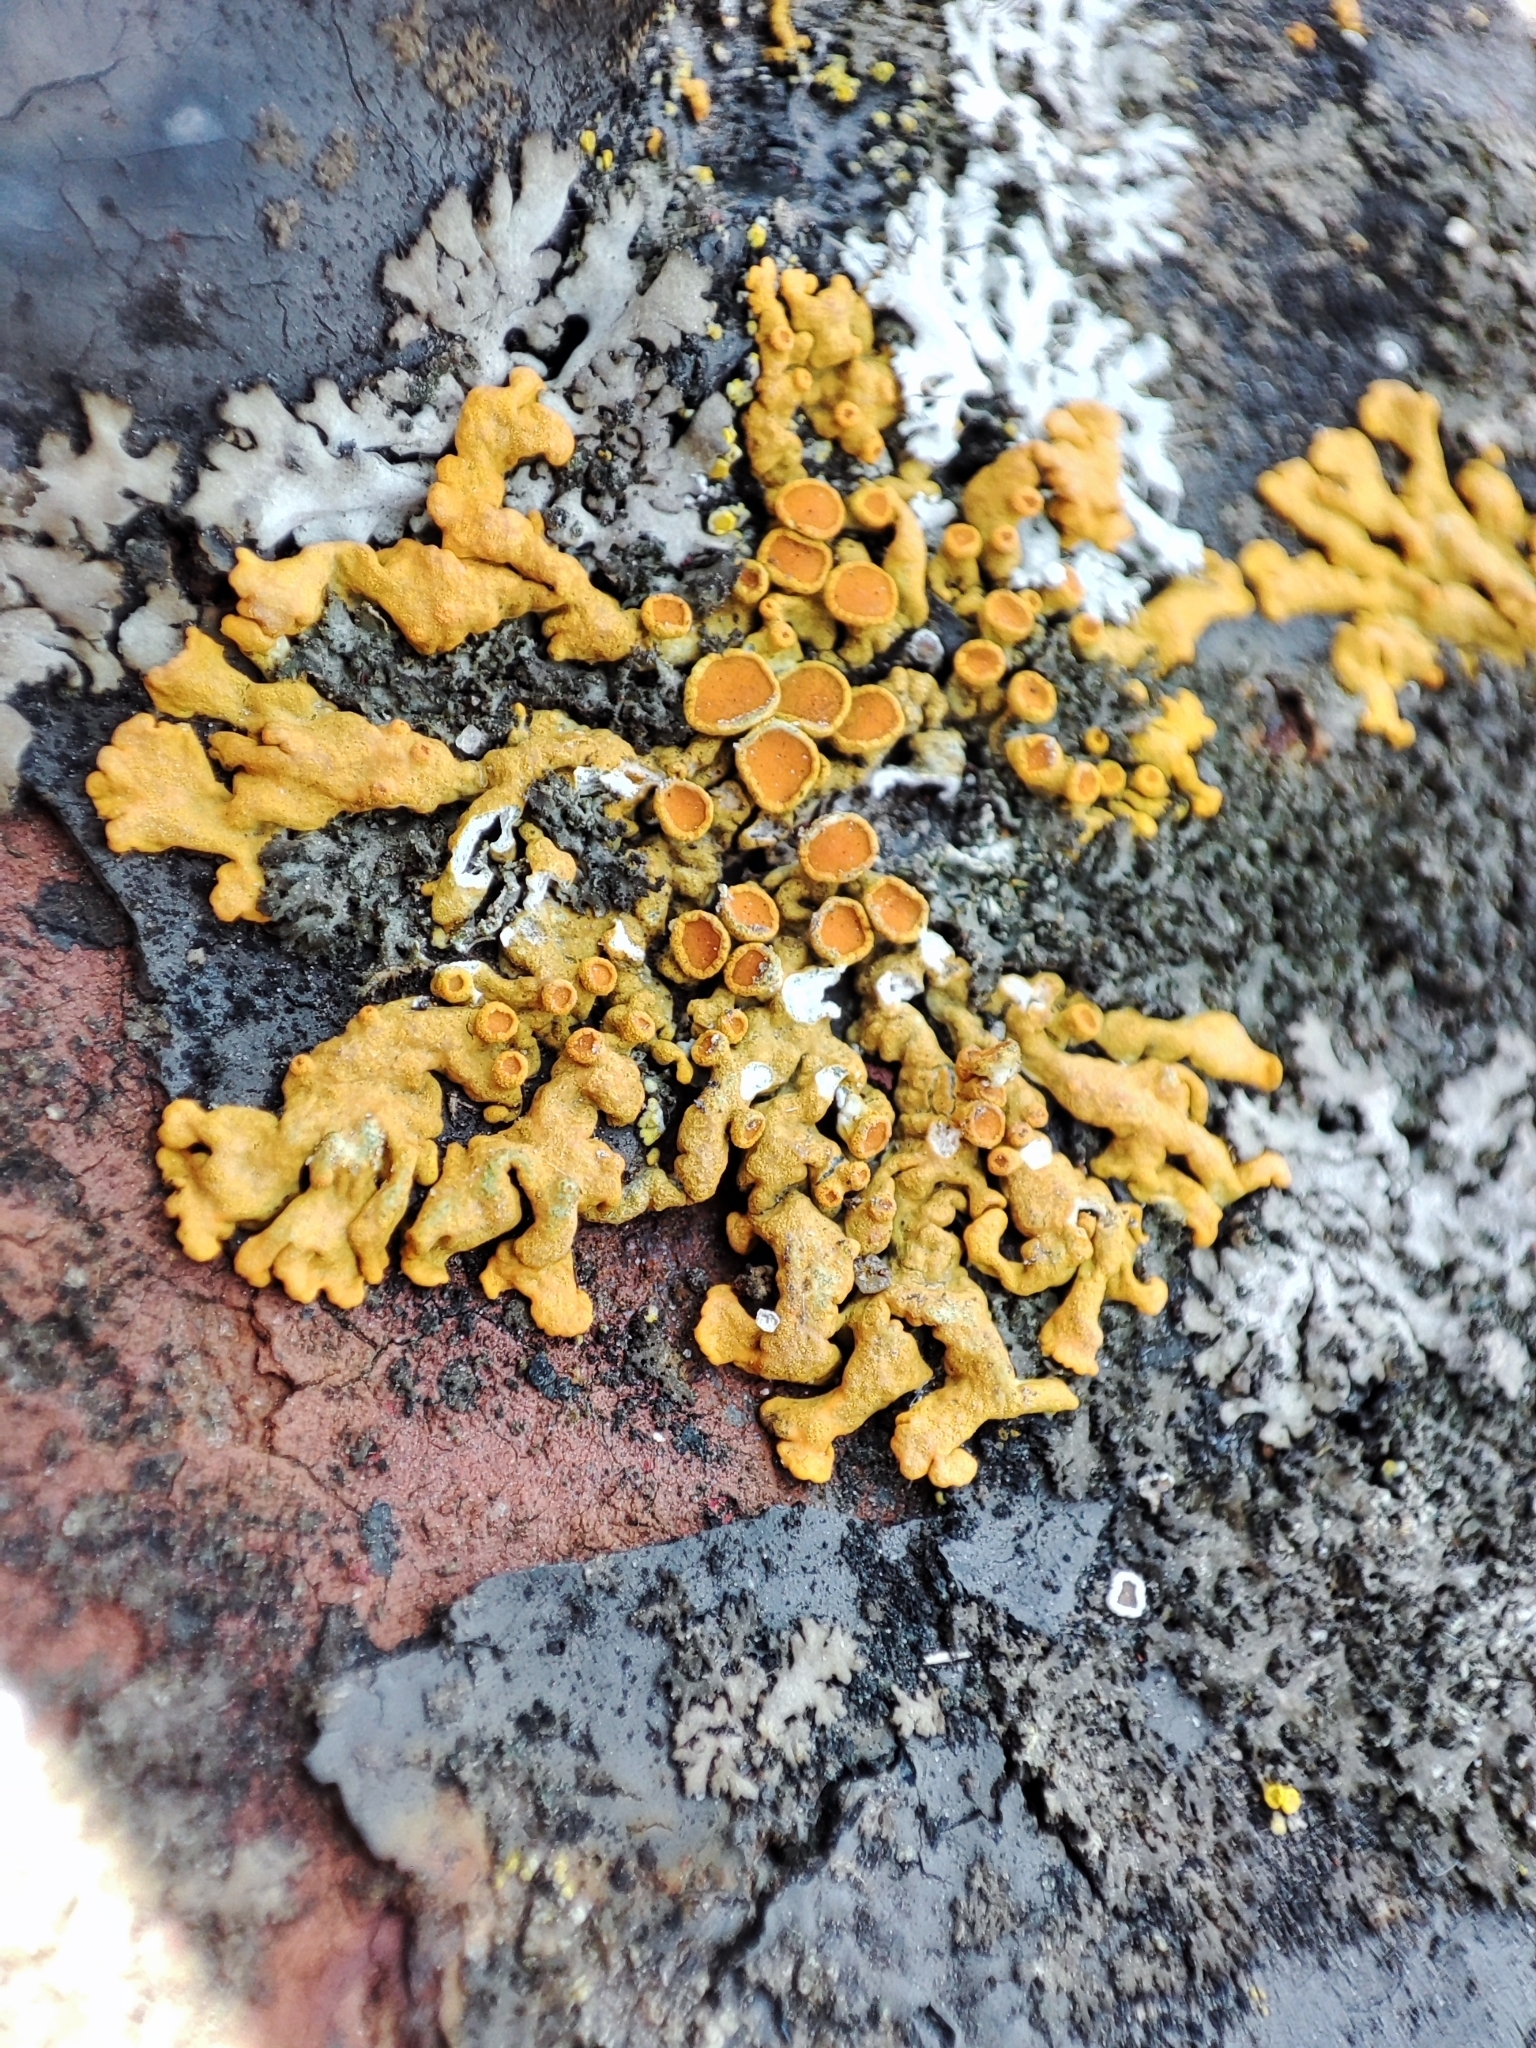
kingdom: Fungi
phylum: Ascomycota
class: Lecanoromycetes
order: Teloschistales
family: Teloschistaceae
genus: Xanthoria
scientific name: Xanthoria elegans
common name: Elegant sunburst lichen
